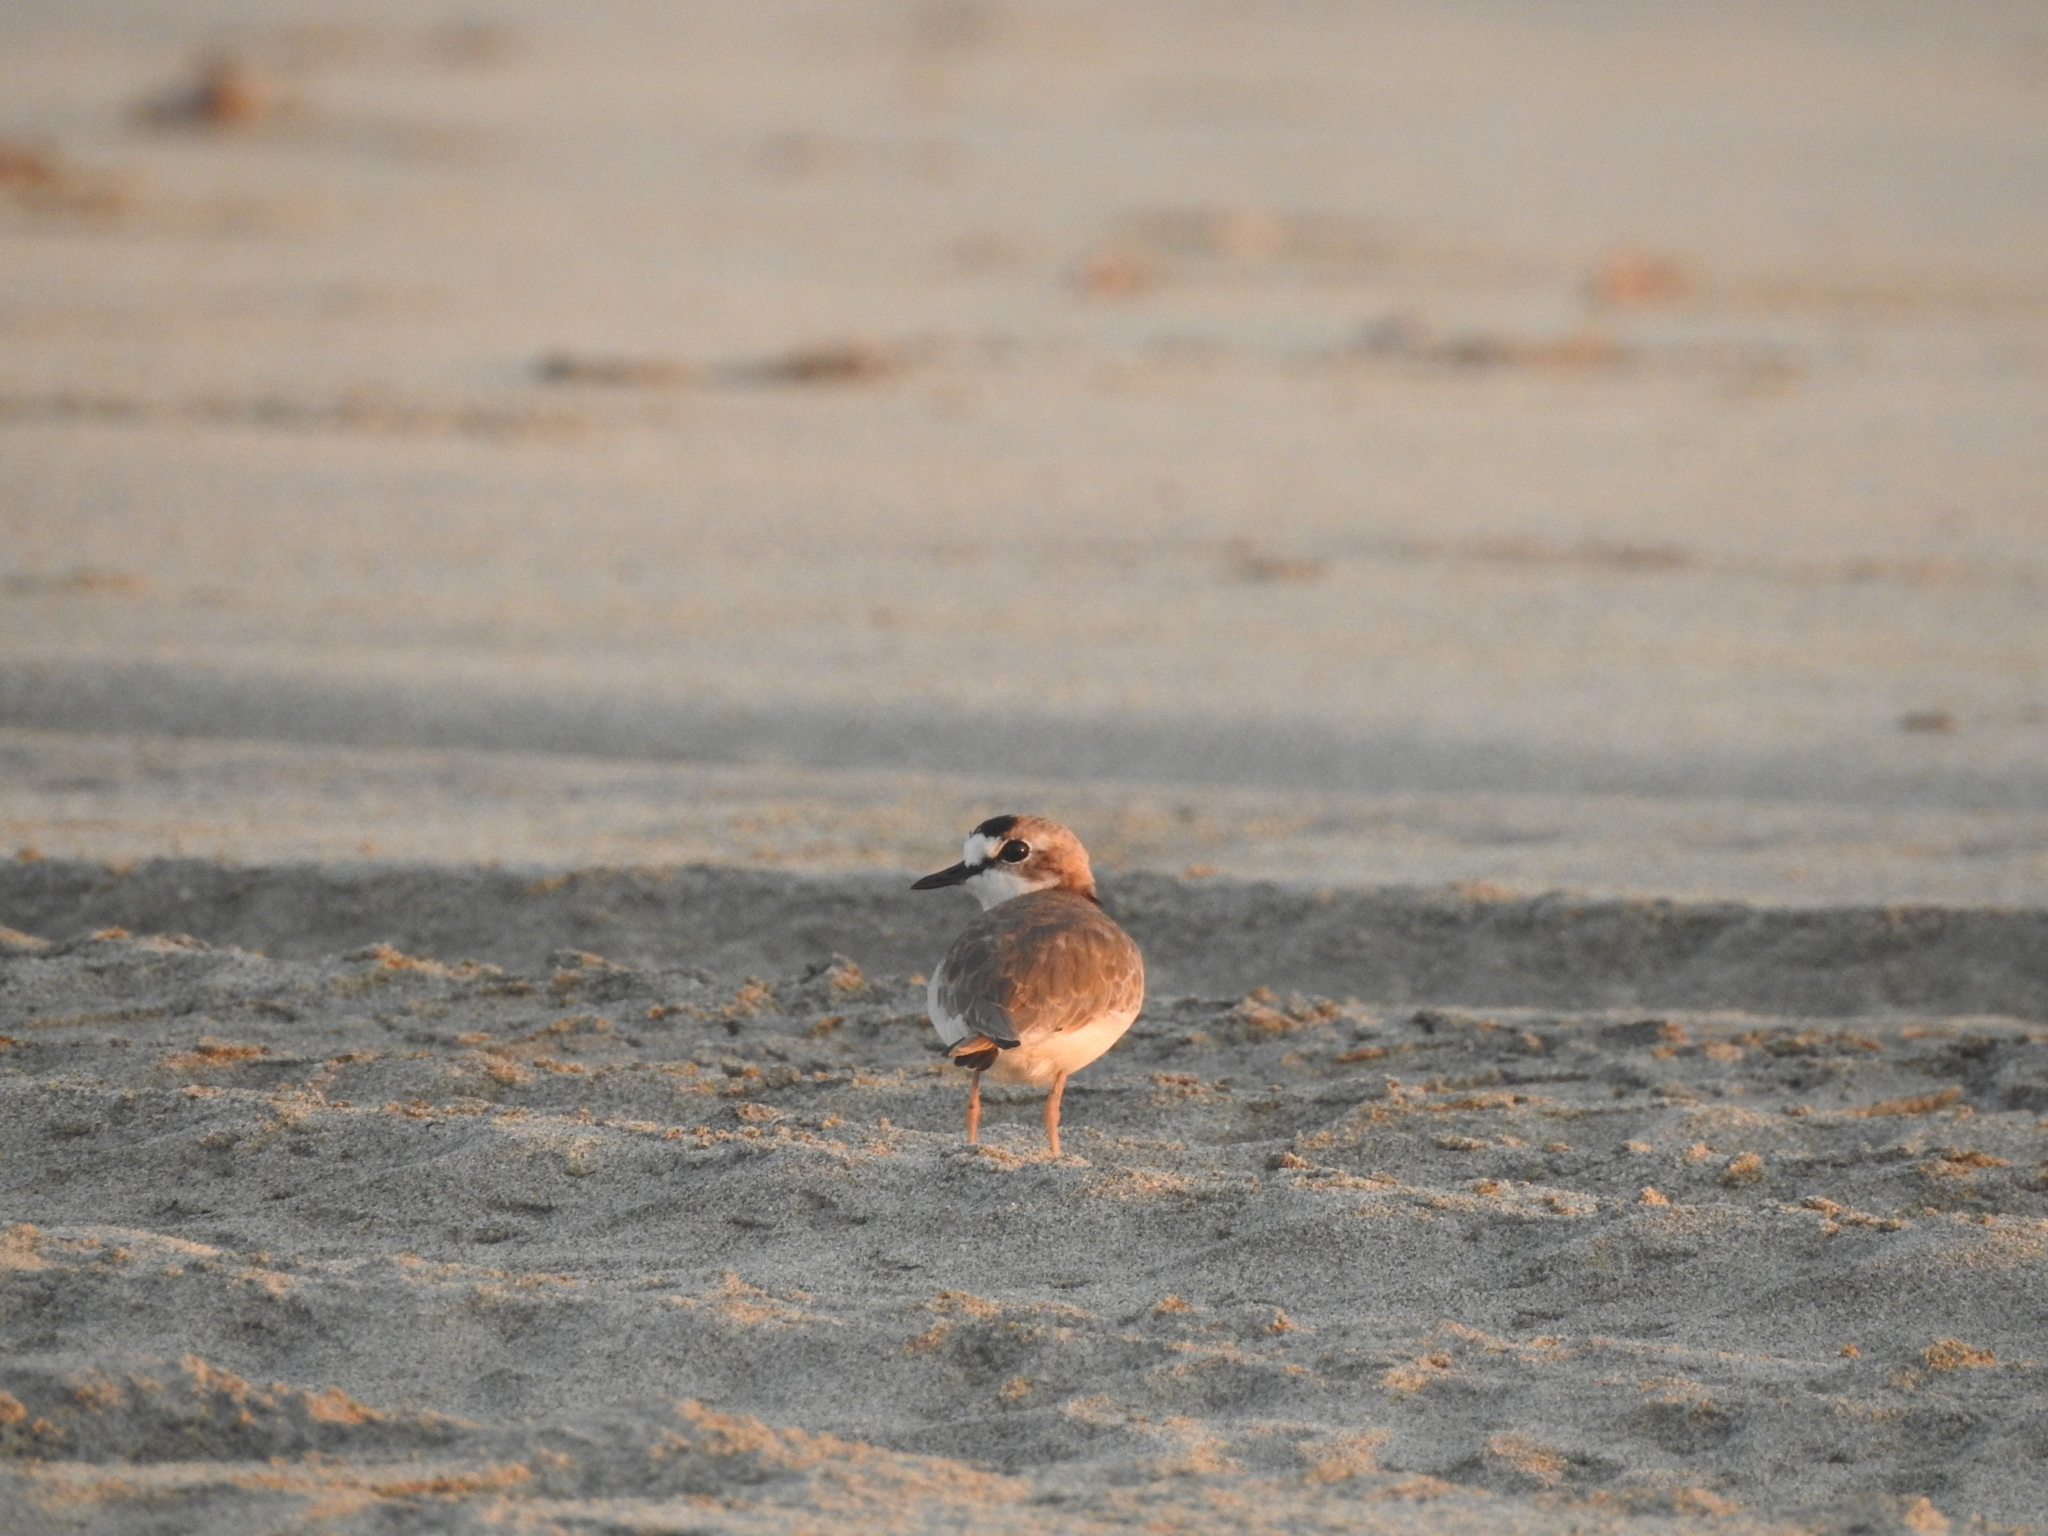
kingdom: Animalia
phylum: Chordata
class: Aves
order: Charadriiformes
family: Charadriidae
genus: Anarhynchus
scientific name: Anarhynchus
